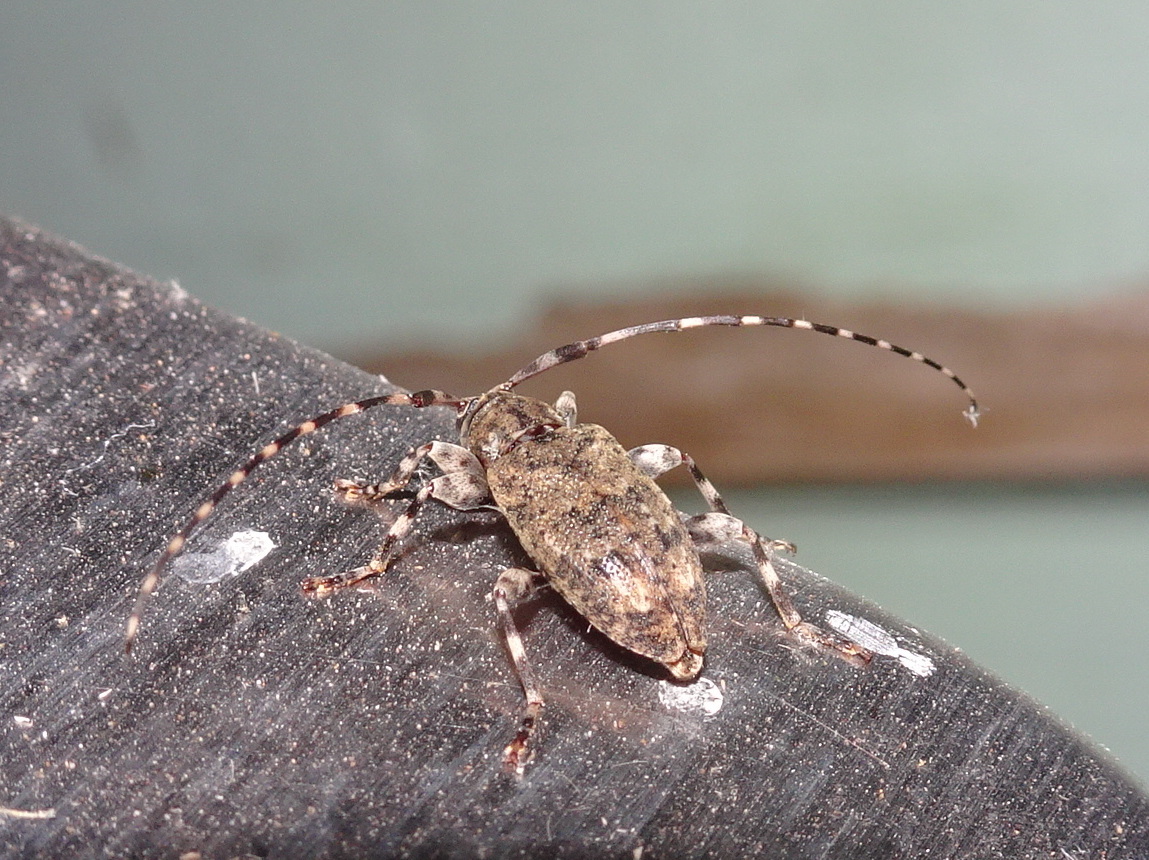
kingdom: Animalia
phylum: Arthropoda
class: Insecta
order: Coleoptera
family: Cerambycidae
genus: Astyleiopus
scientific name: Astyleiopus variegatus
